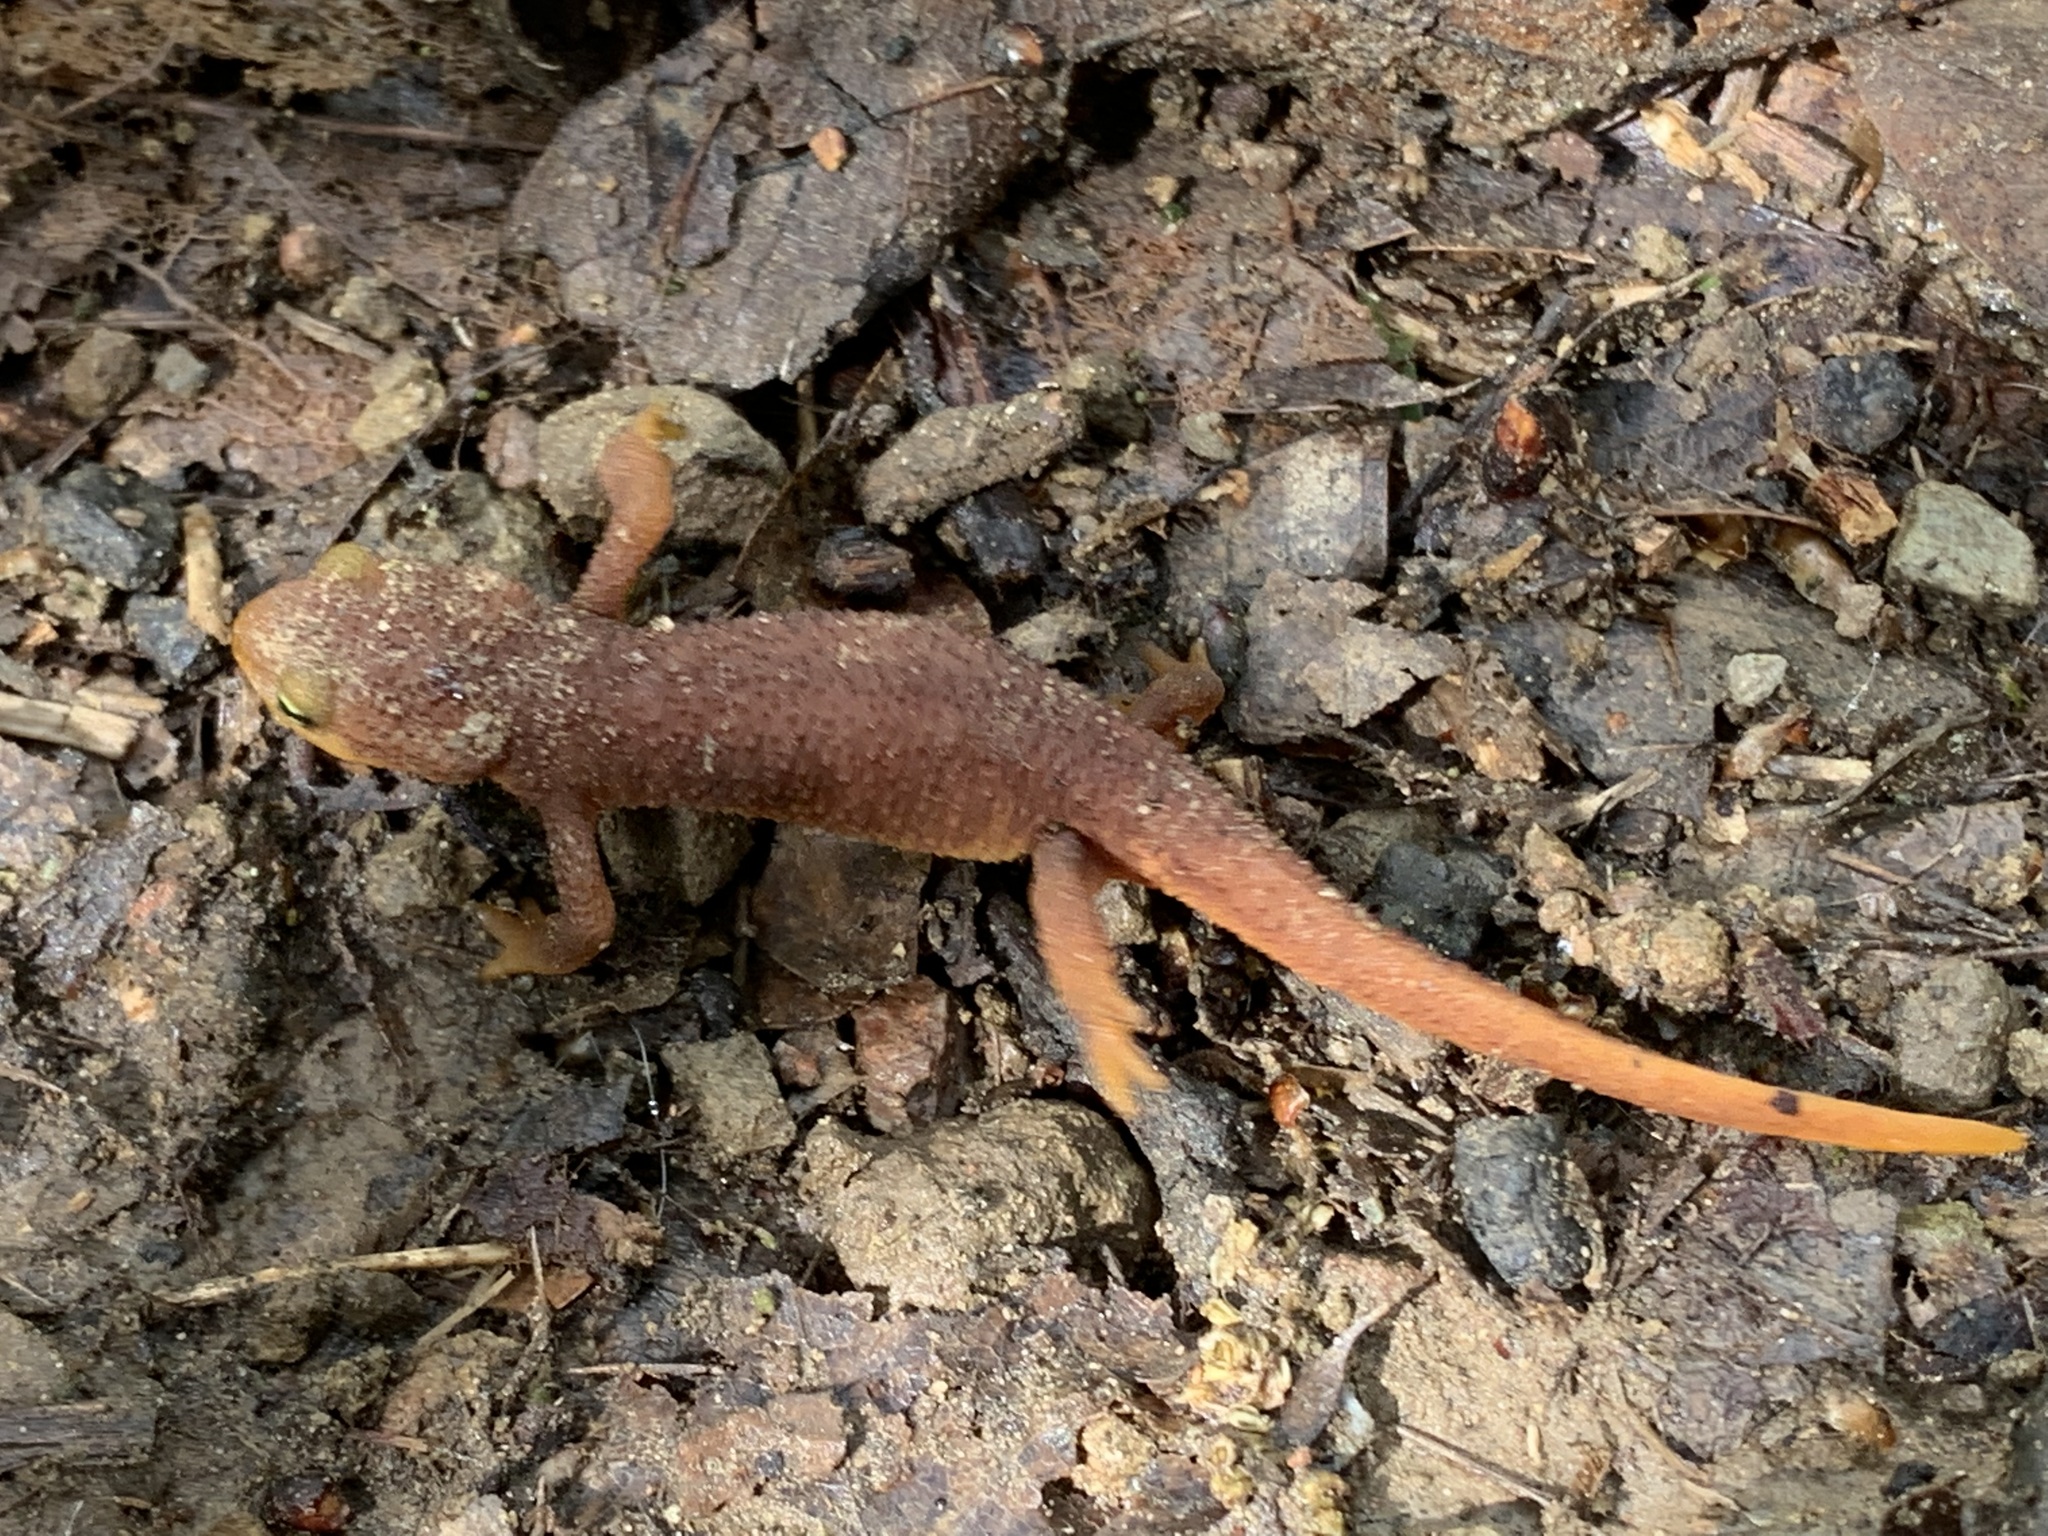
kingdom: Animalia
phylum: Chordata
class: Amphibia
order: Caudata
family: Salamandridae
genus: Taricha
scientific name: Taricha torosa
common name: California newt
